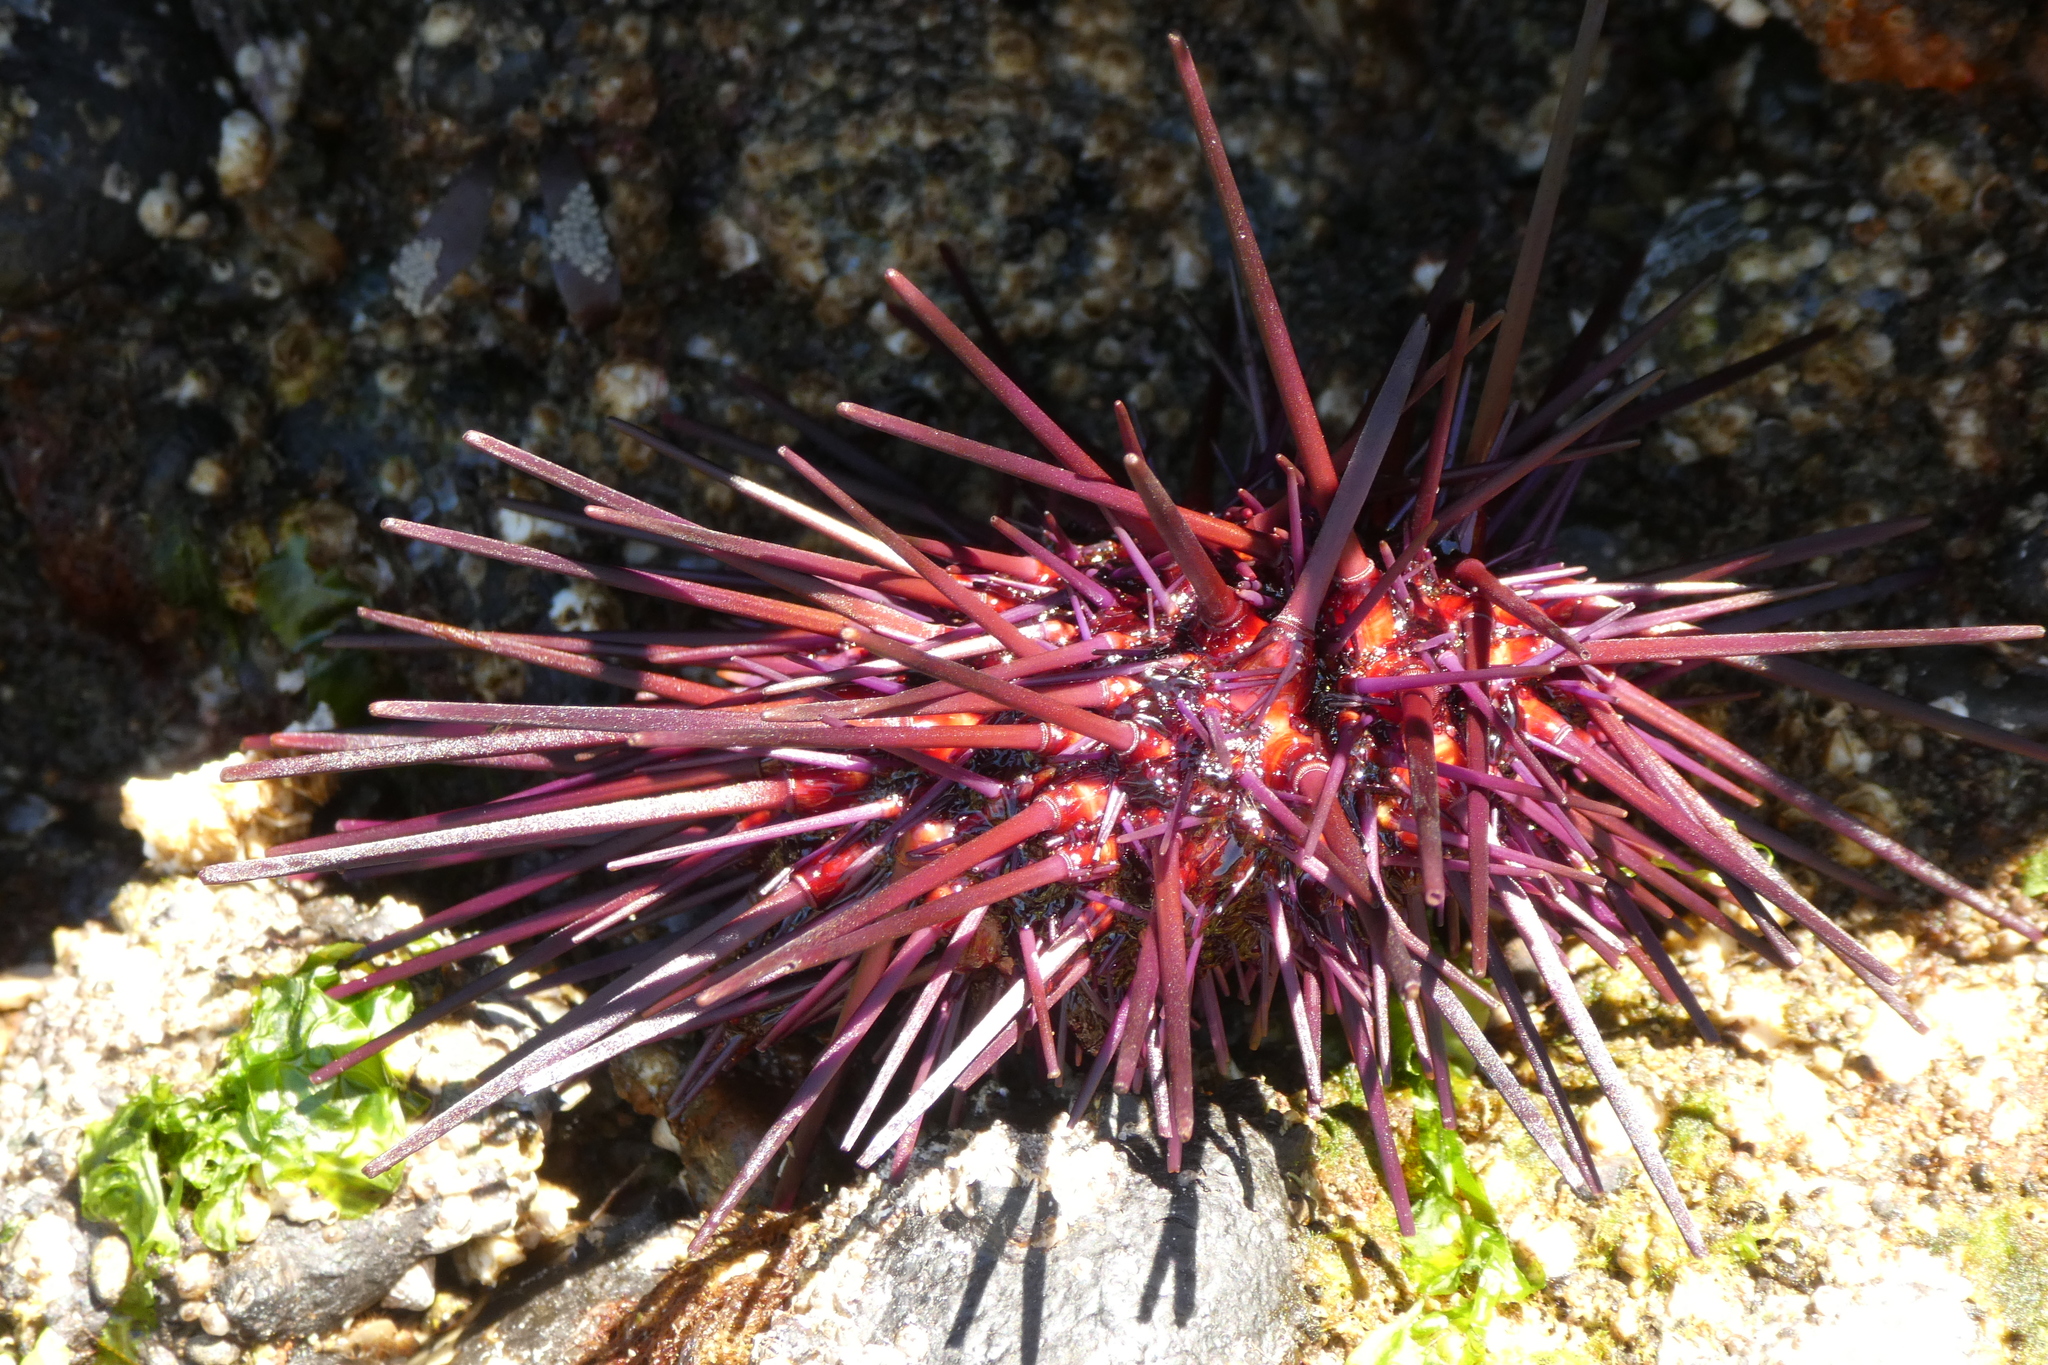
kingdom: Animalia
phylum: Echinodermata
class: Echinoidea
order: Camarodonta
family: Strongylocentrotidae
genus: Mesocentrotus
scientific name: Mesocentrotus franciscanus
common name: Red sea urchin
